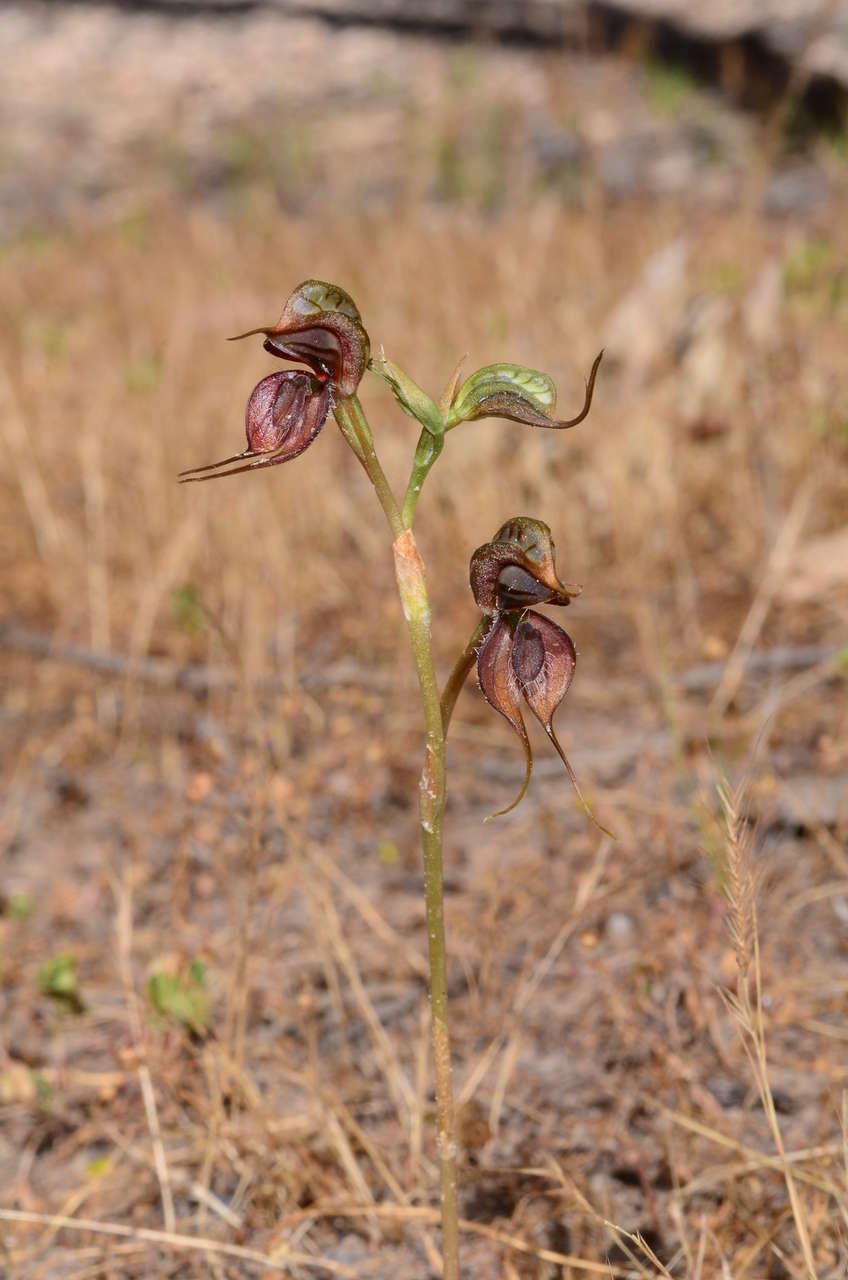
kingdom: Plantae
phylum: Tracheophyta
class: Liliopsida
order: Asparagales
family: Orchidaceae
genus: Pterostylis
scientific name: Pterostylis cheraphila
